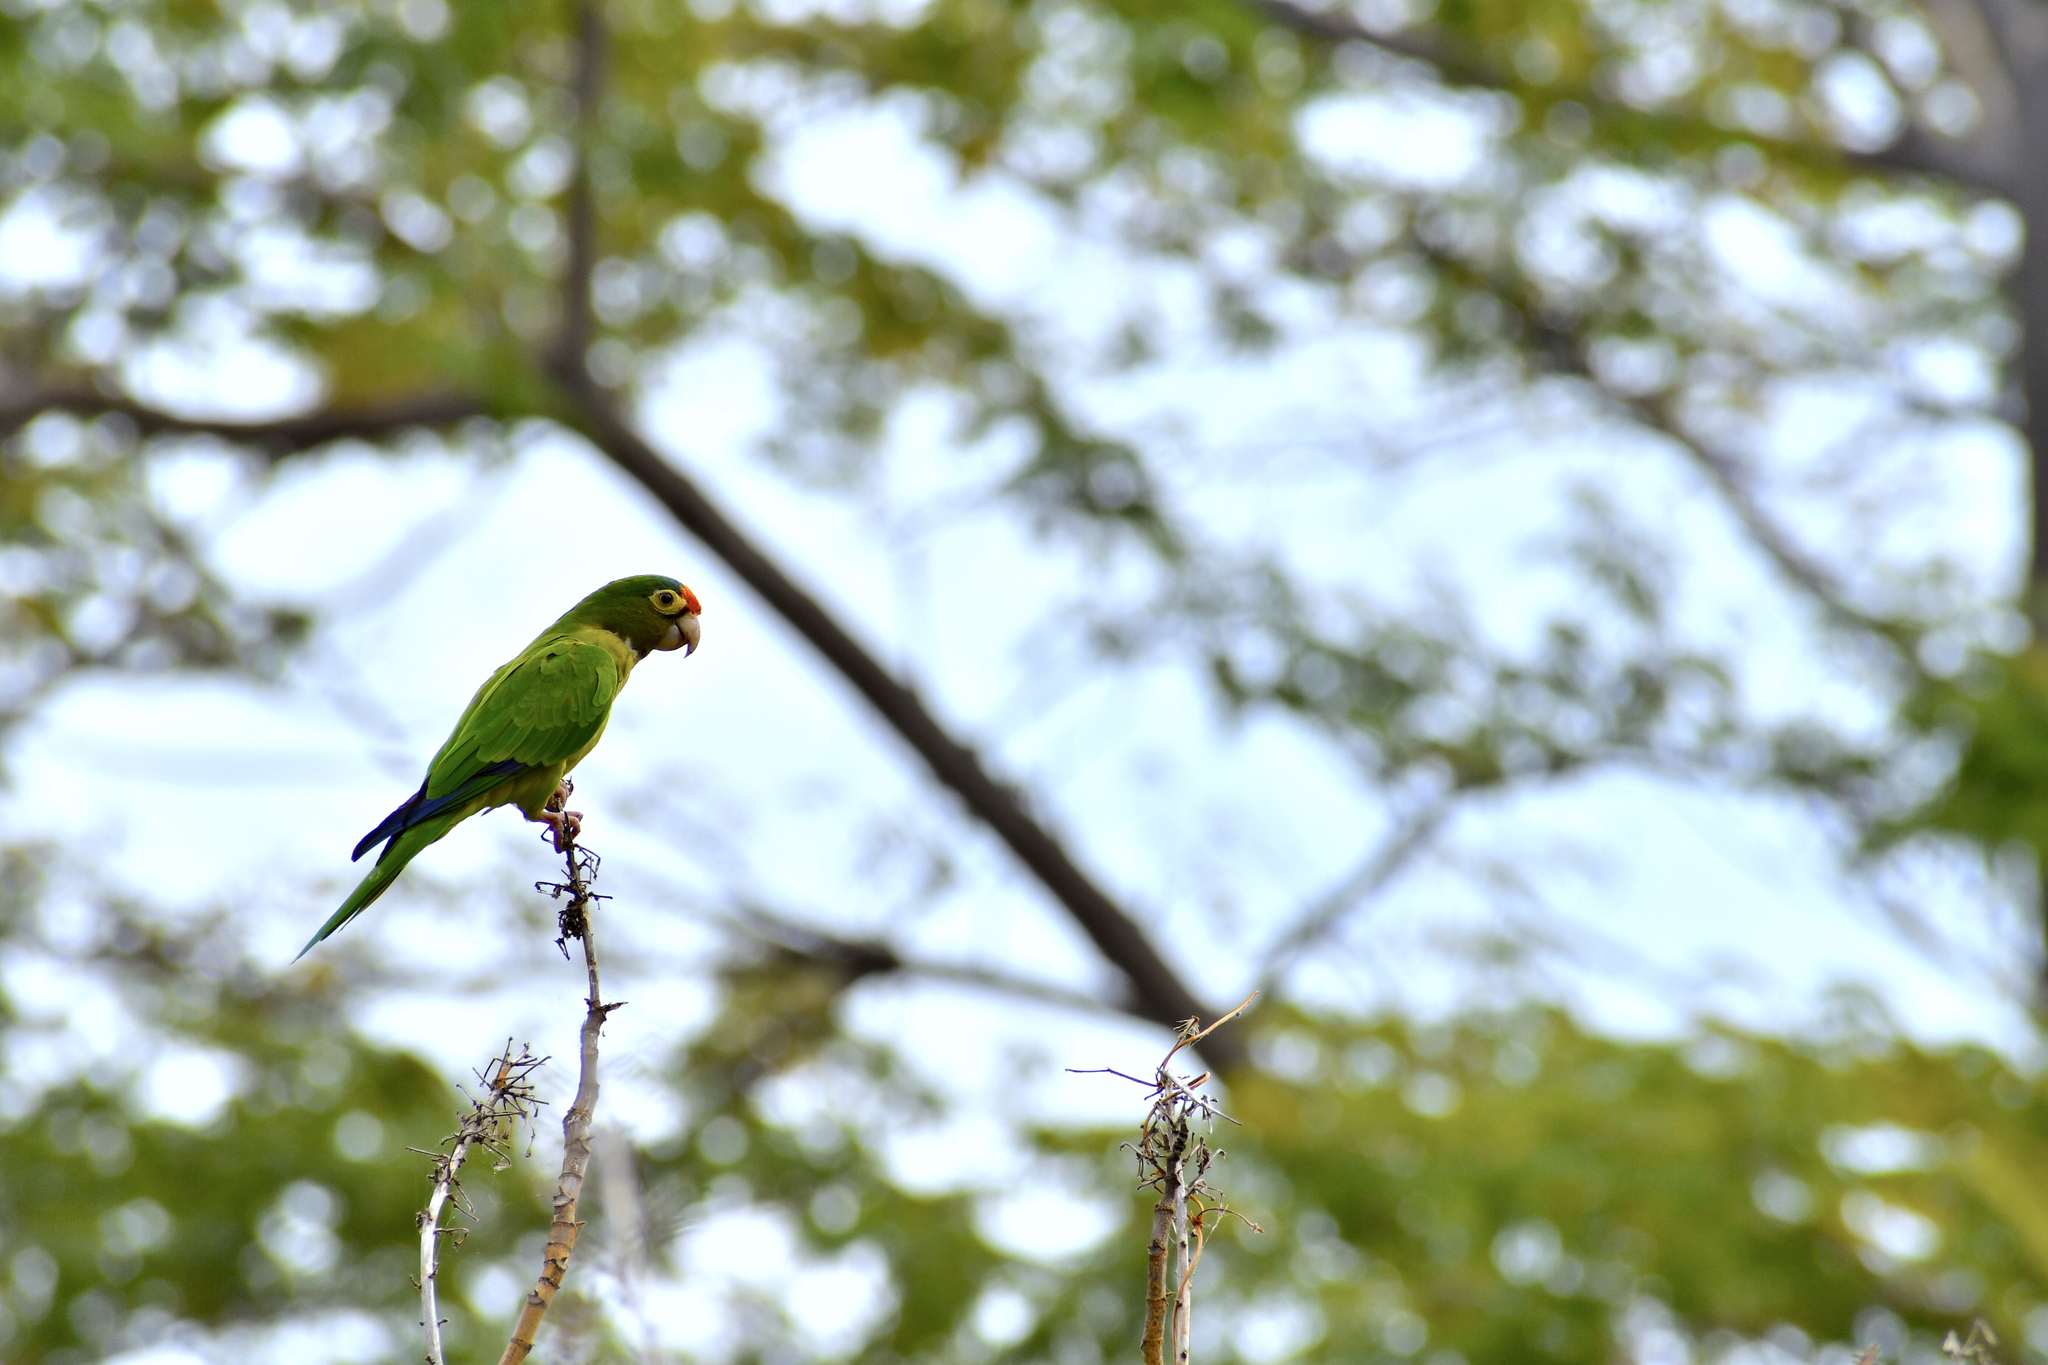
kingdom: Animalia
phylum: Chordata
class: Aves
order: Psittaciformes
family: Psittacidae
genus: Aratinga
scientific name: Aratinga canicularis
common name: Orange-fronted parakeet
